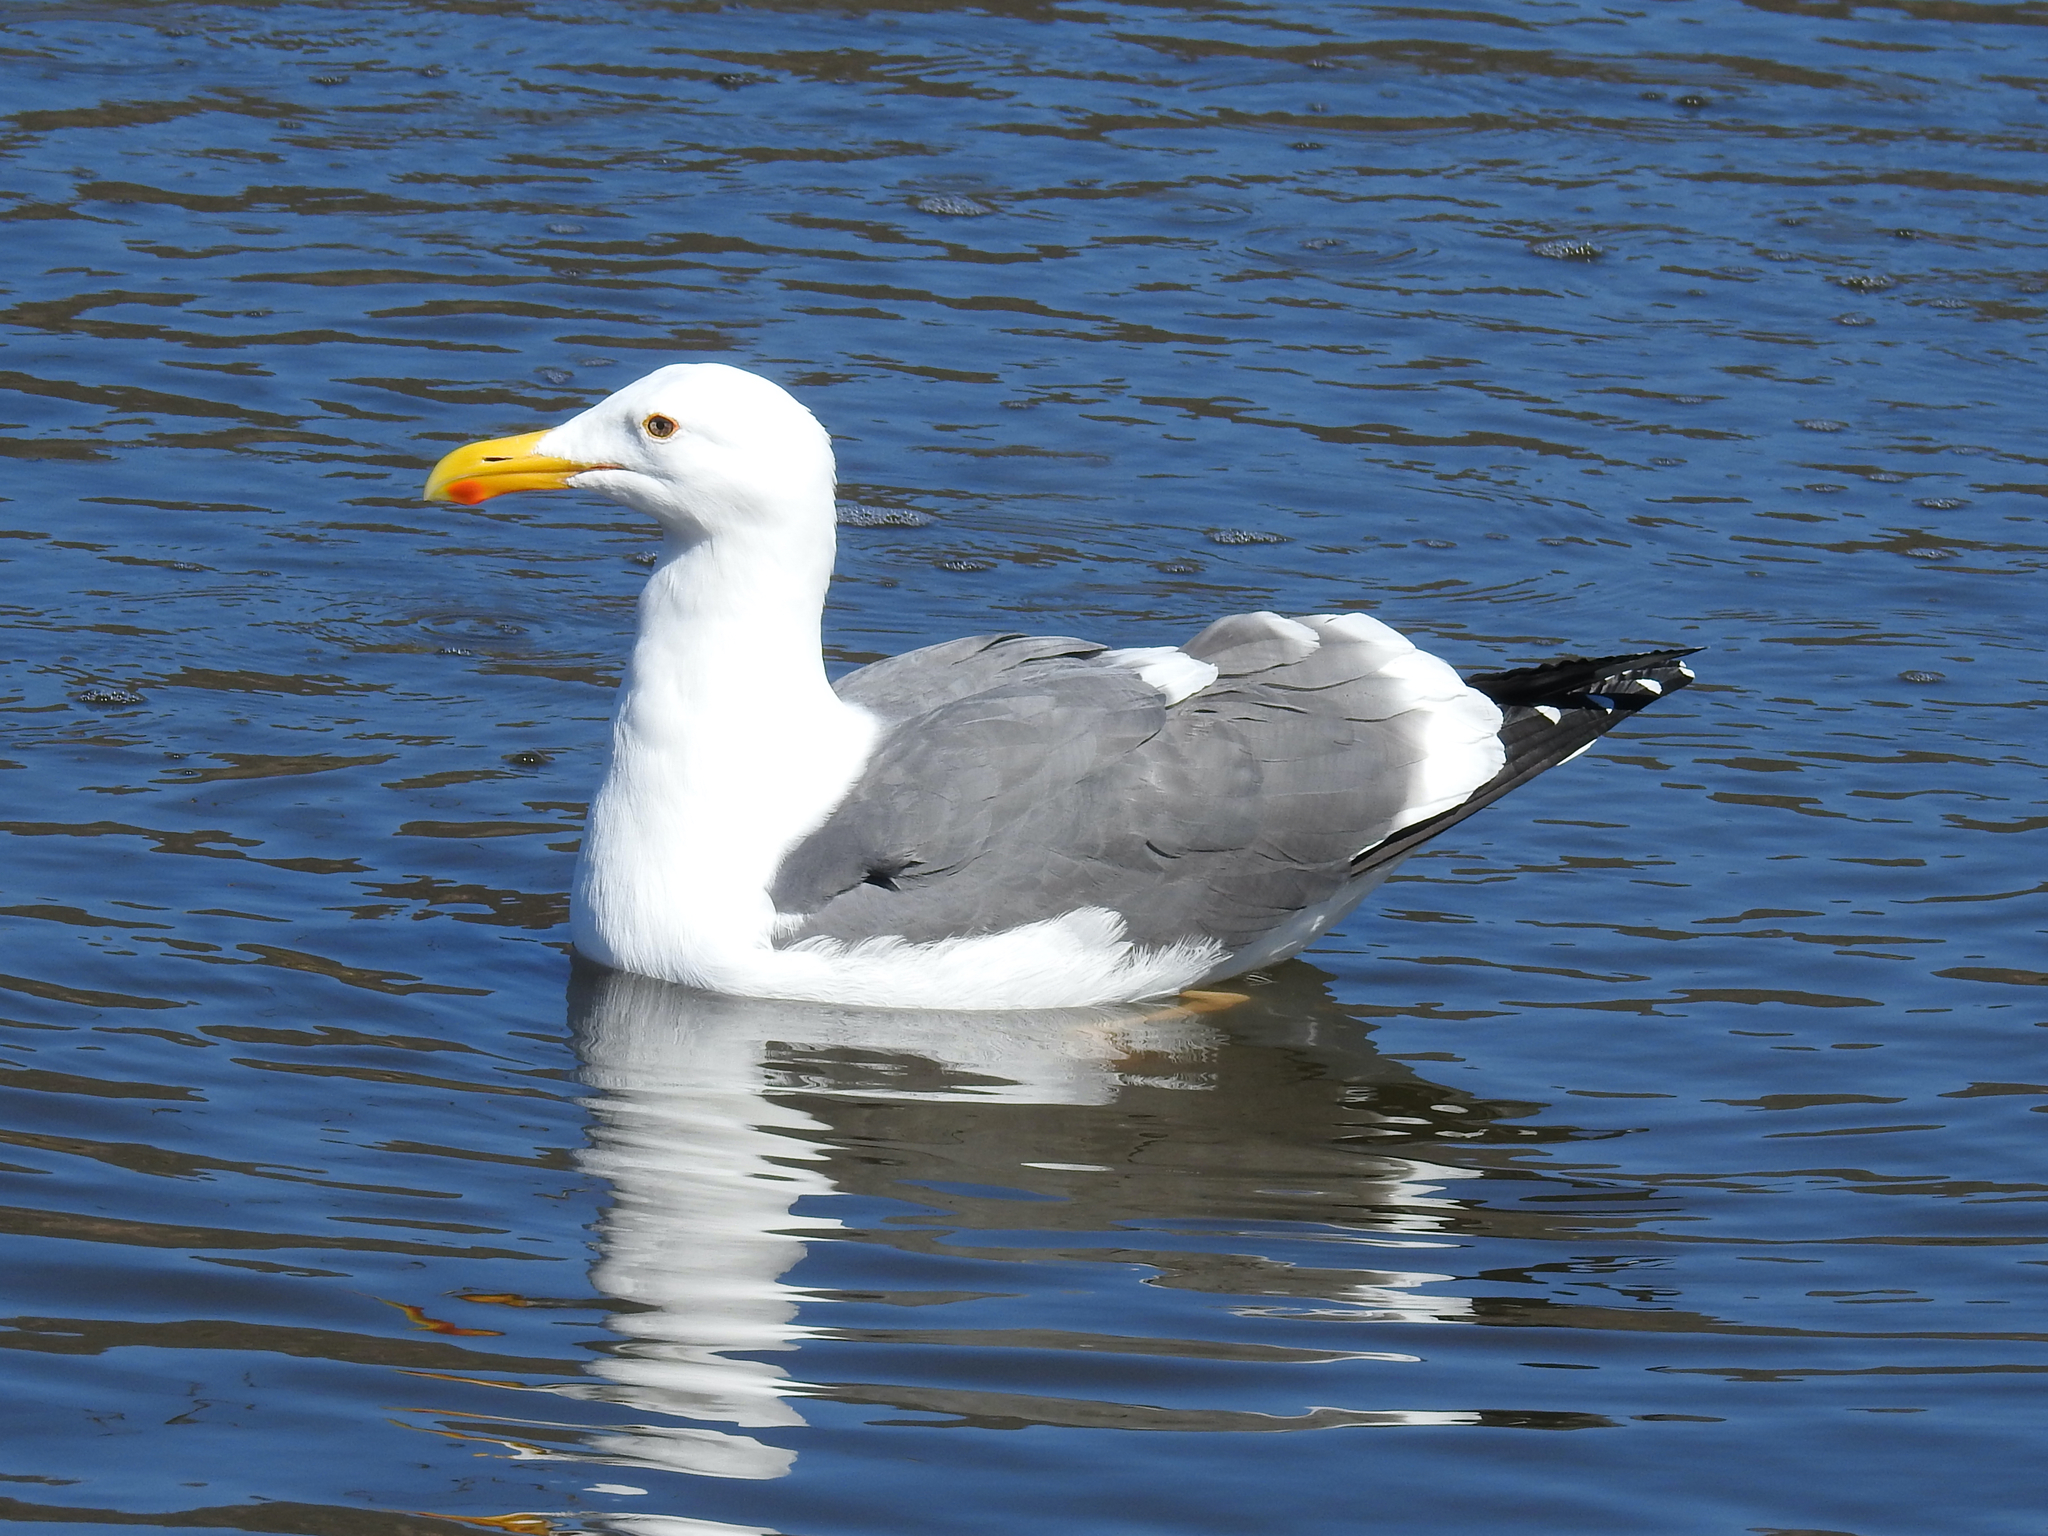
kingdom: Animalia
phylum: Chordata
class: Aves
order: Charadriiformes
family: Laridae
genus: Larus
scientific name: Larus occidentalis
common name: Western gull
